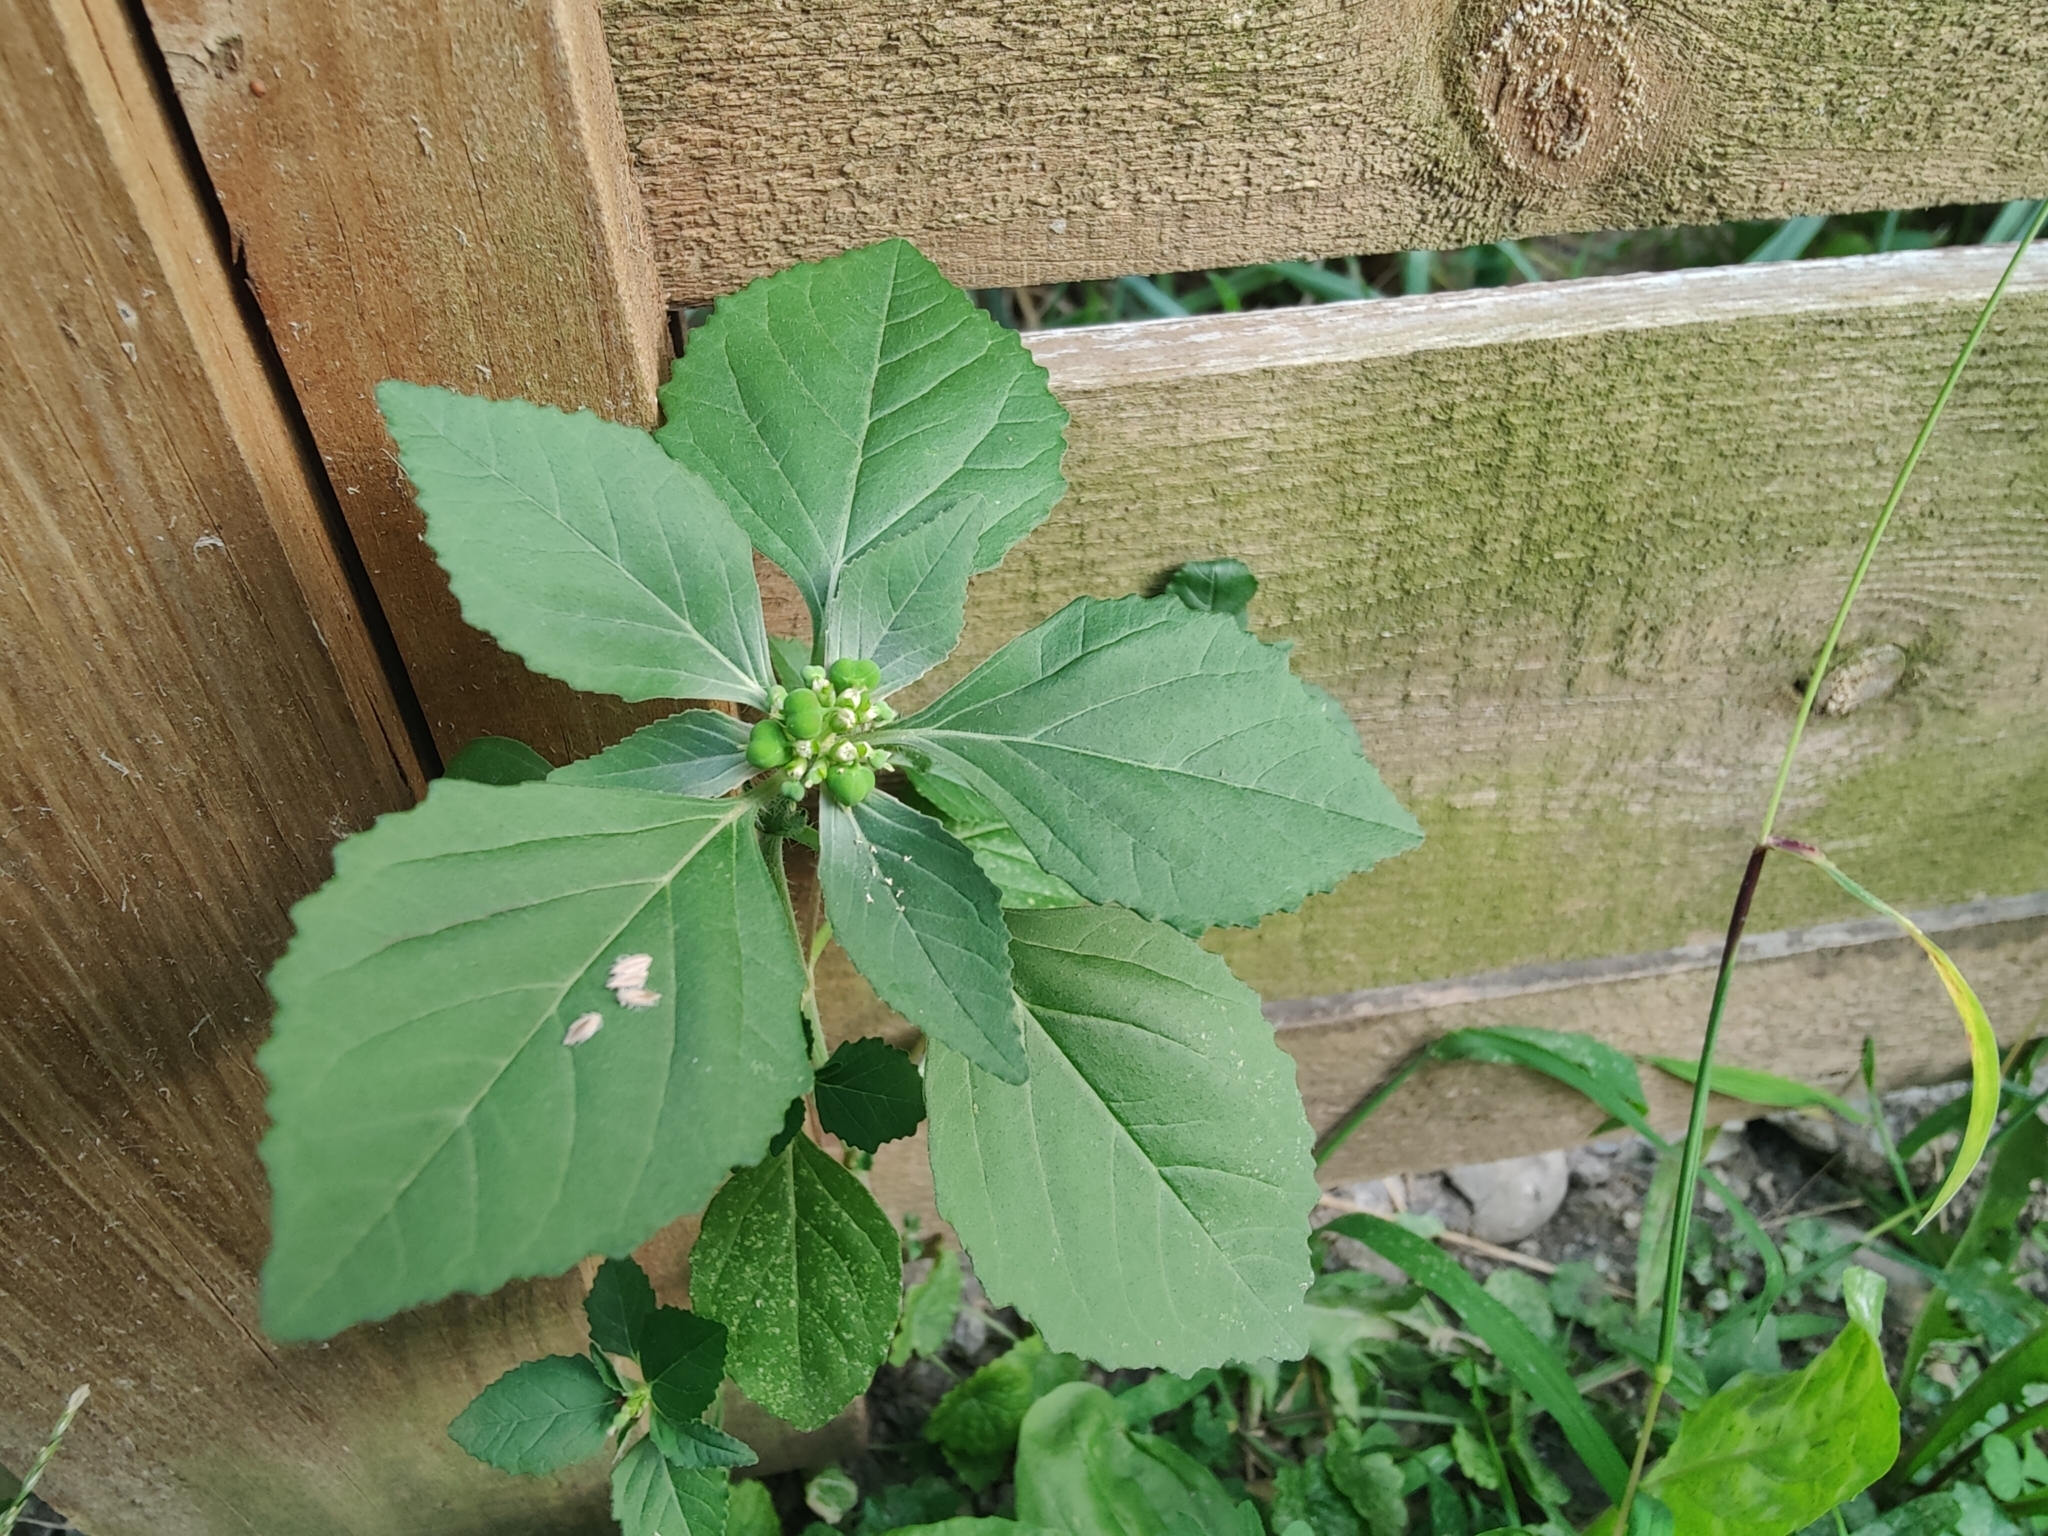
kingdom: Plantae
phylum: Tracheophyta
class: Magnoliopsida
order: Malpighiales
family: Euphorbiaceae
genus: Euphorbia
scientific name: Euphorbia dentata
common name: Dentate spurge
